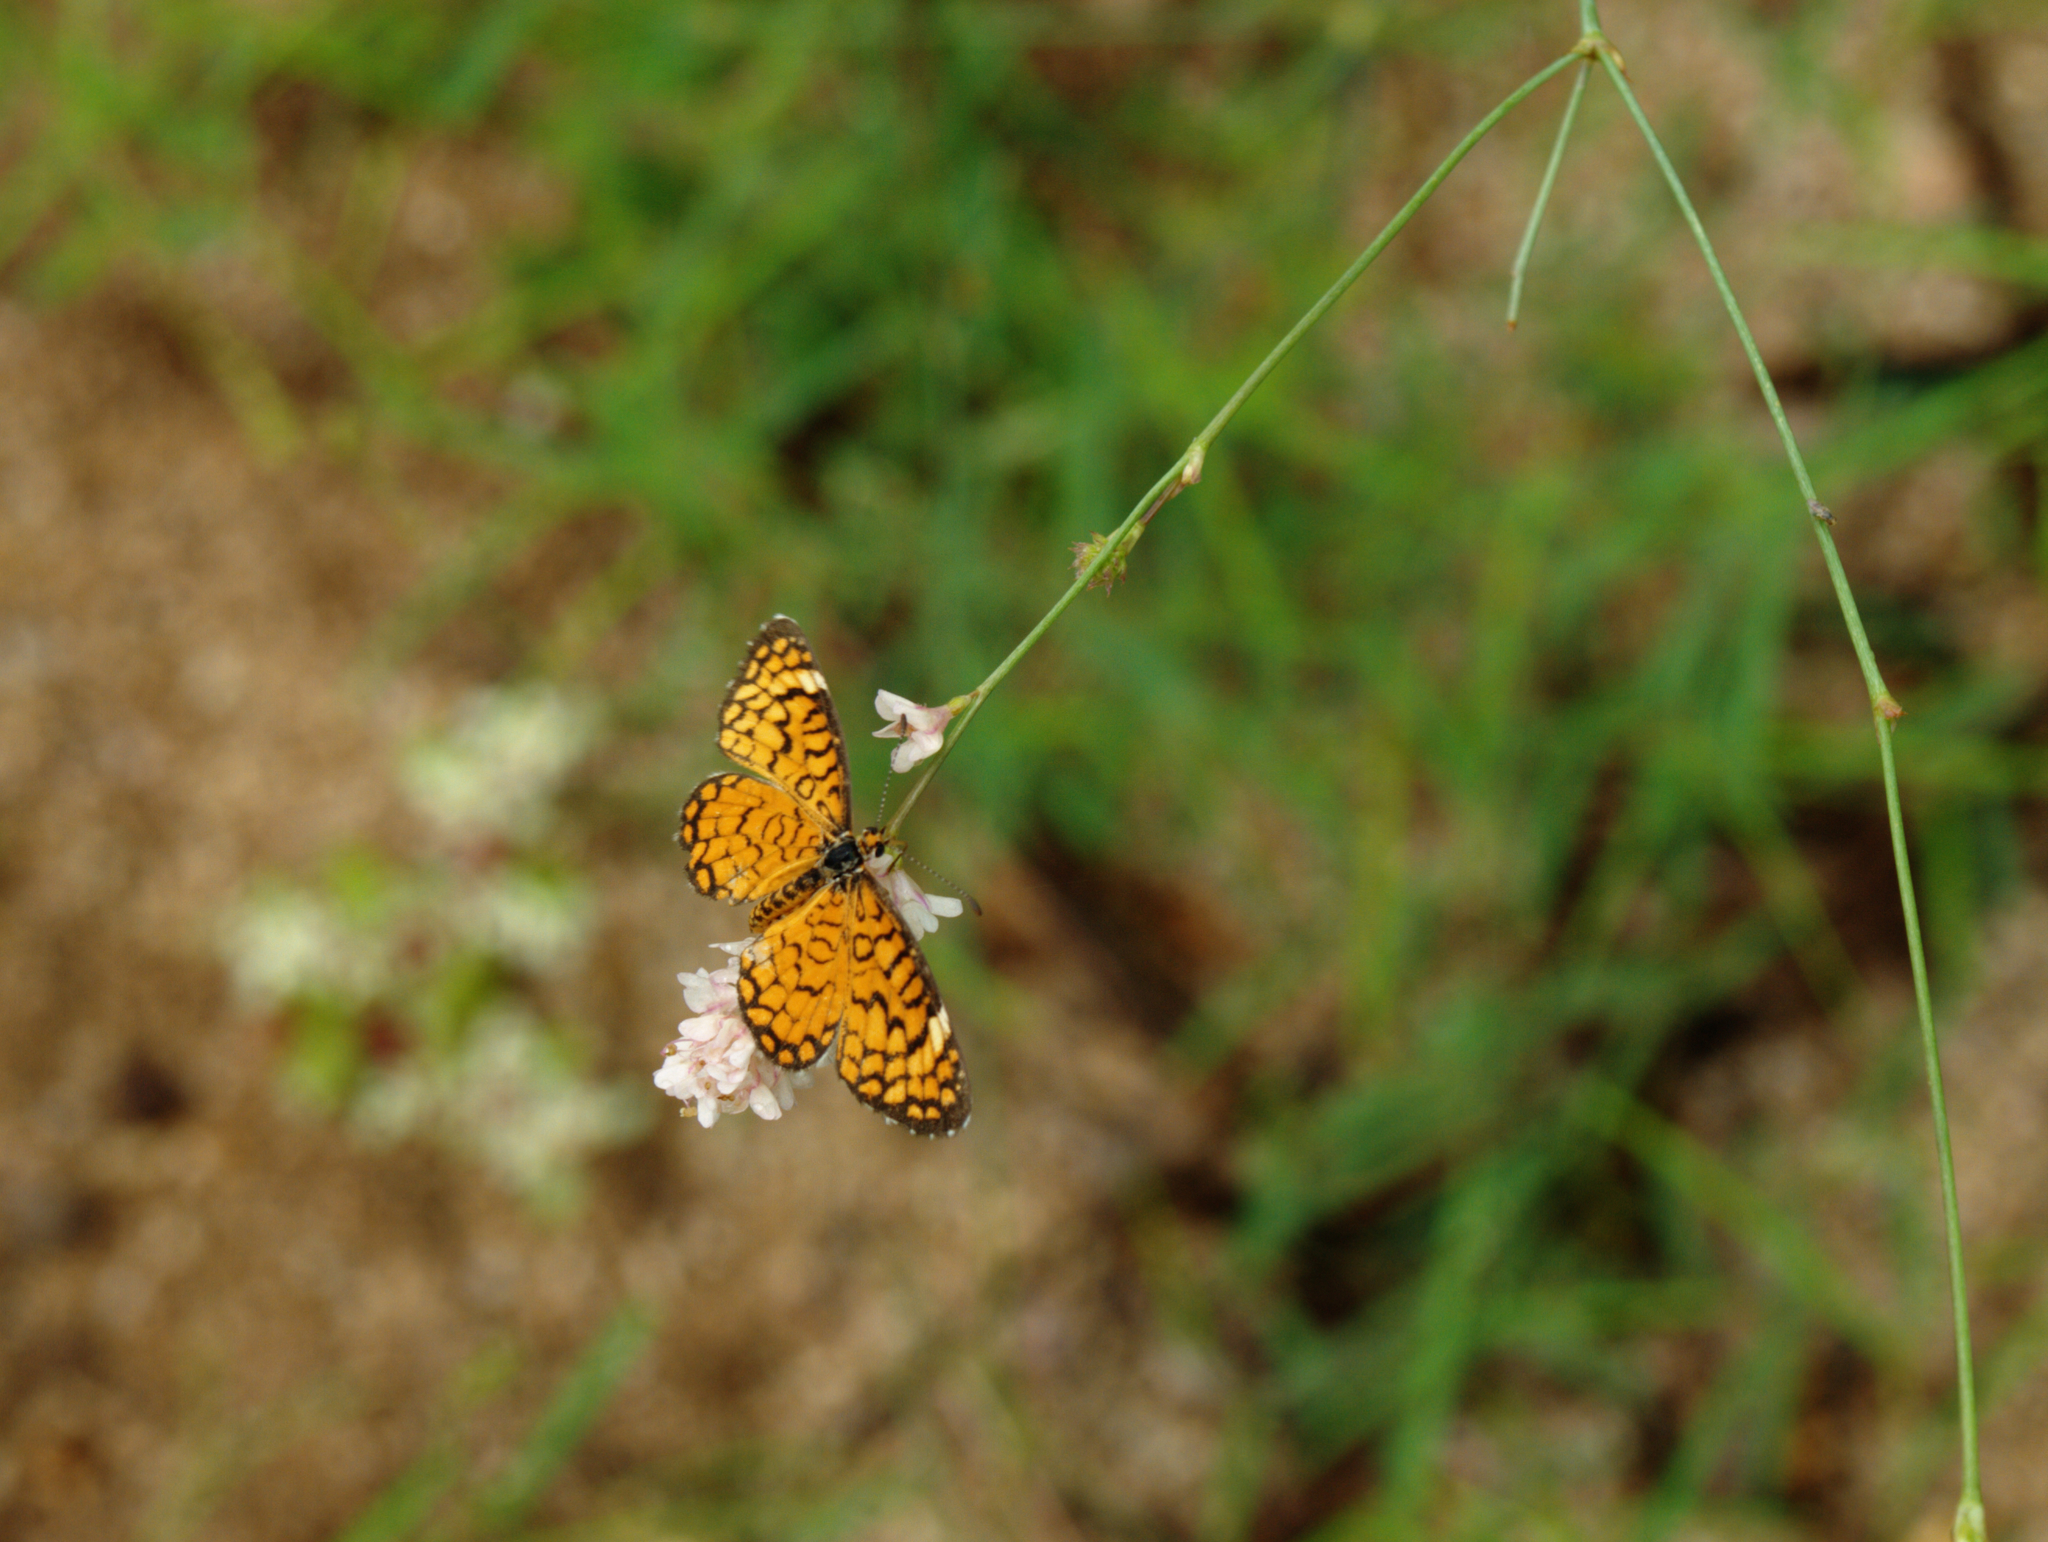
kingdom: Animalia
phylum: Arthropoda
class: Insecta
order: Lepidoptera
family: Nymphalidae
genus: Dymasia
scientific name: Dymasia dymas
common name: Tiny checkerspot
